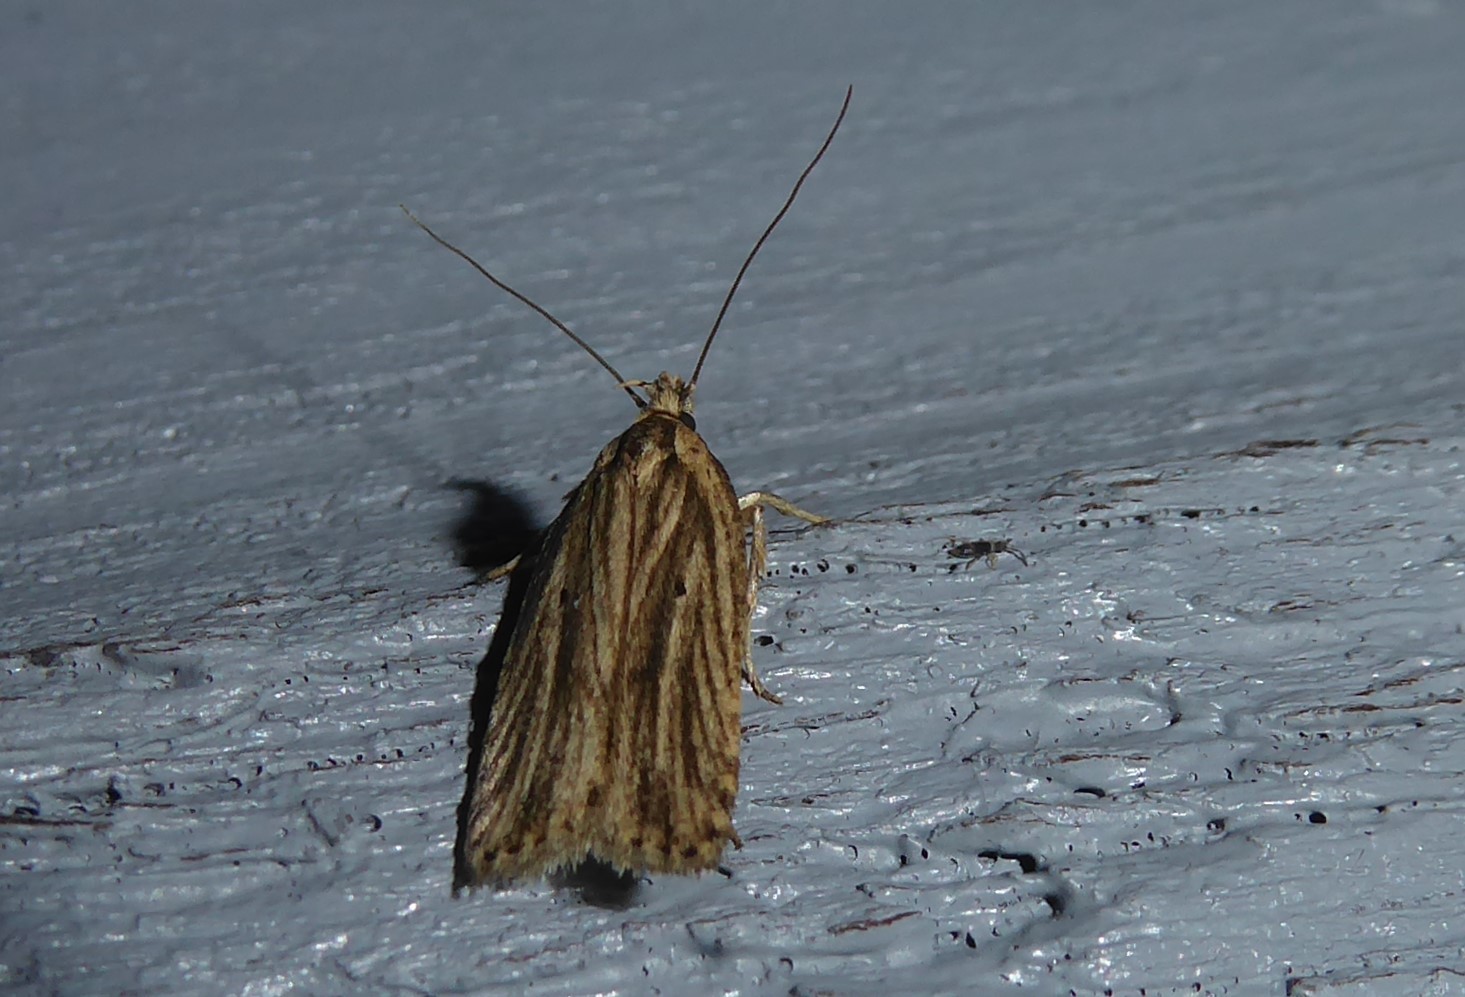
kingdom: Animalia
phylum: Arthropoda
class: Insecta
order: Lepidoptera
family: Depressariidae
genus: Agonopterix
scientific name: Agonopterix
